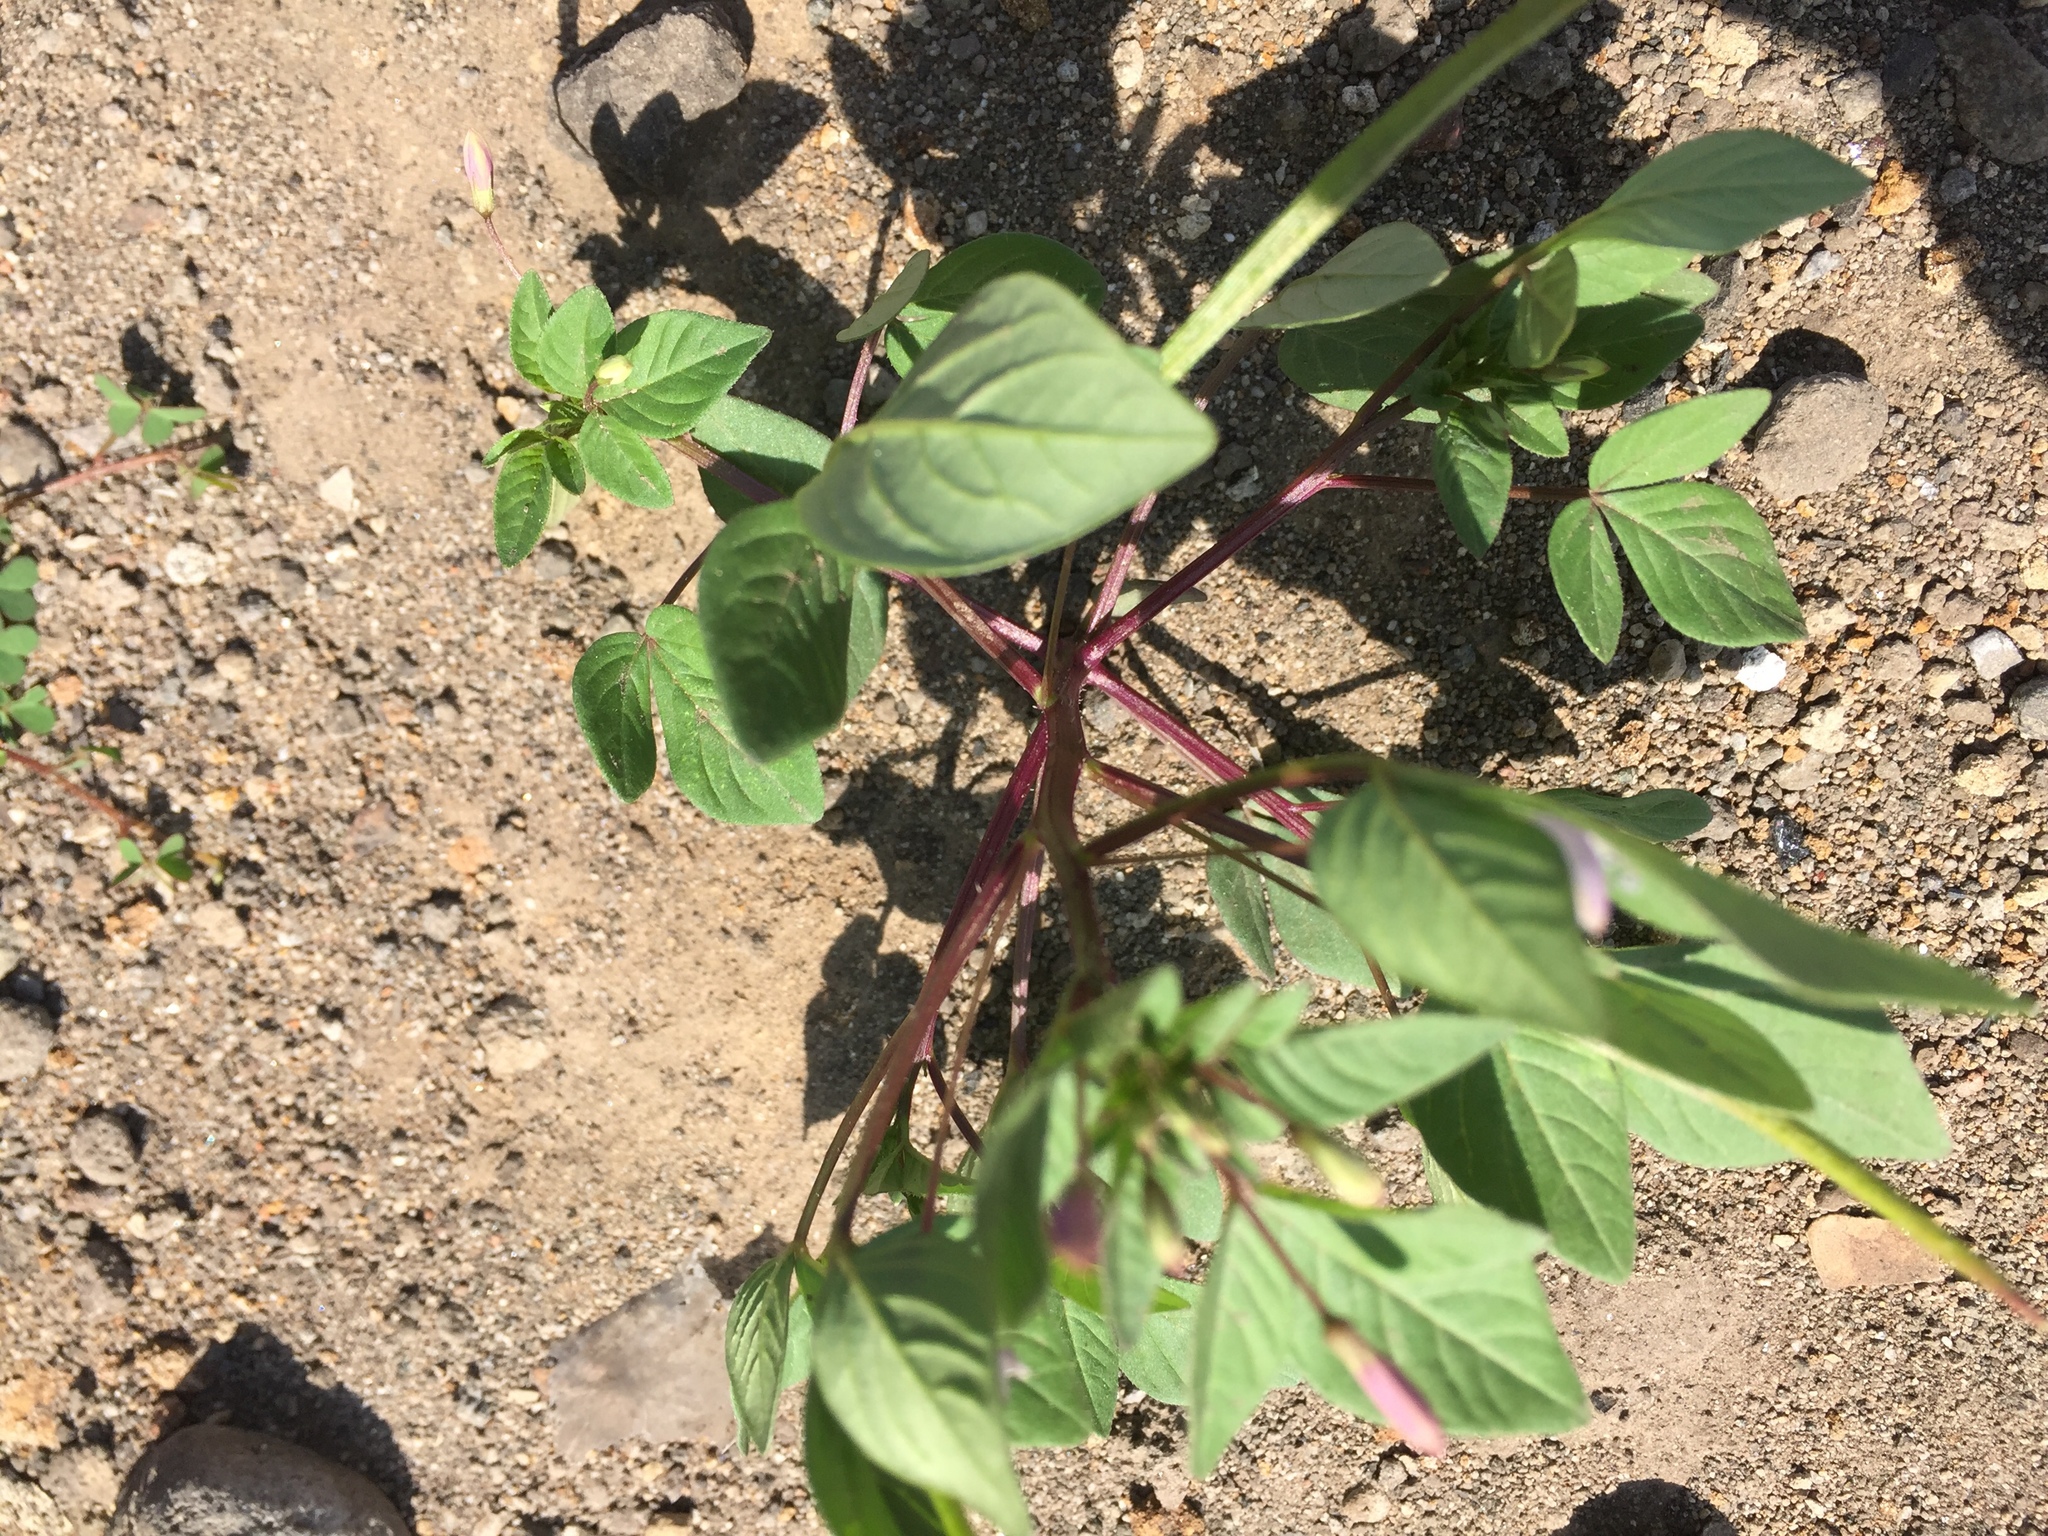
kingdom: Plantae
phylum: Tracheophyta
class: Magnoliopsida
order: Brassicales
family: Cleomaceae
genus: Sieruela
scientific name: Sieruela rutidosperma
